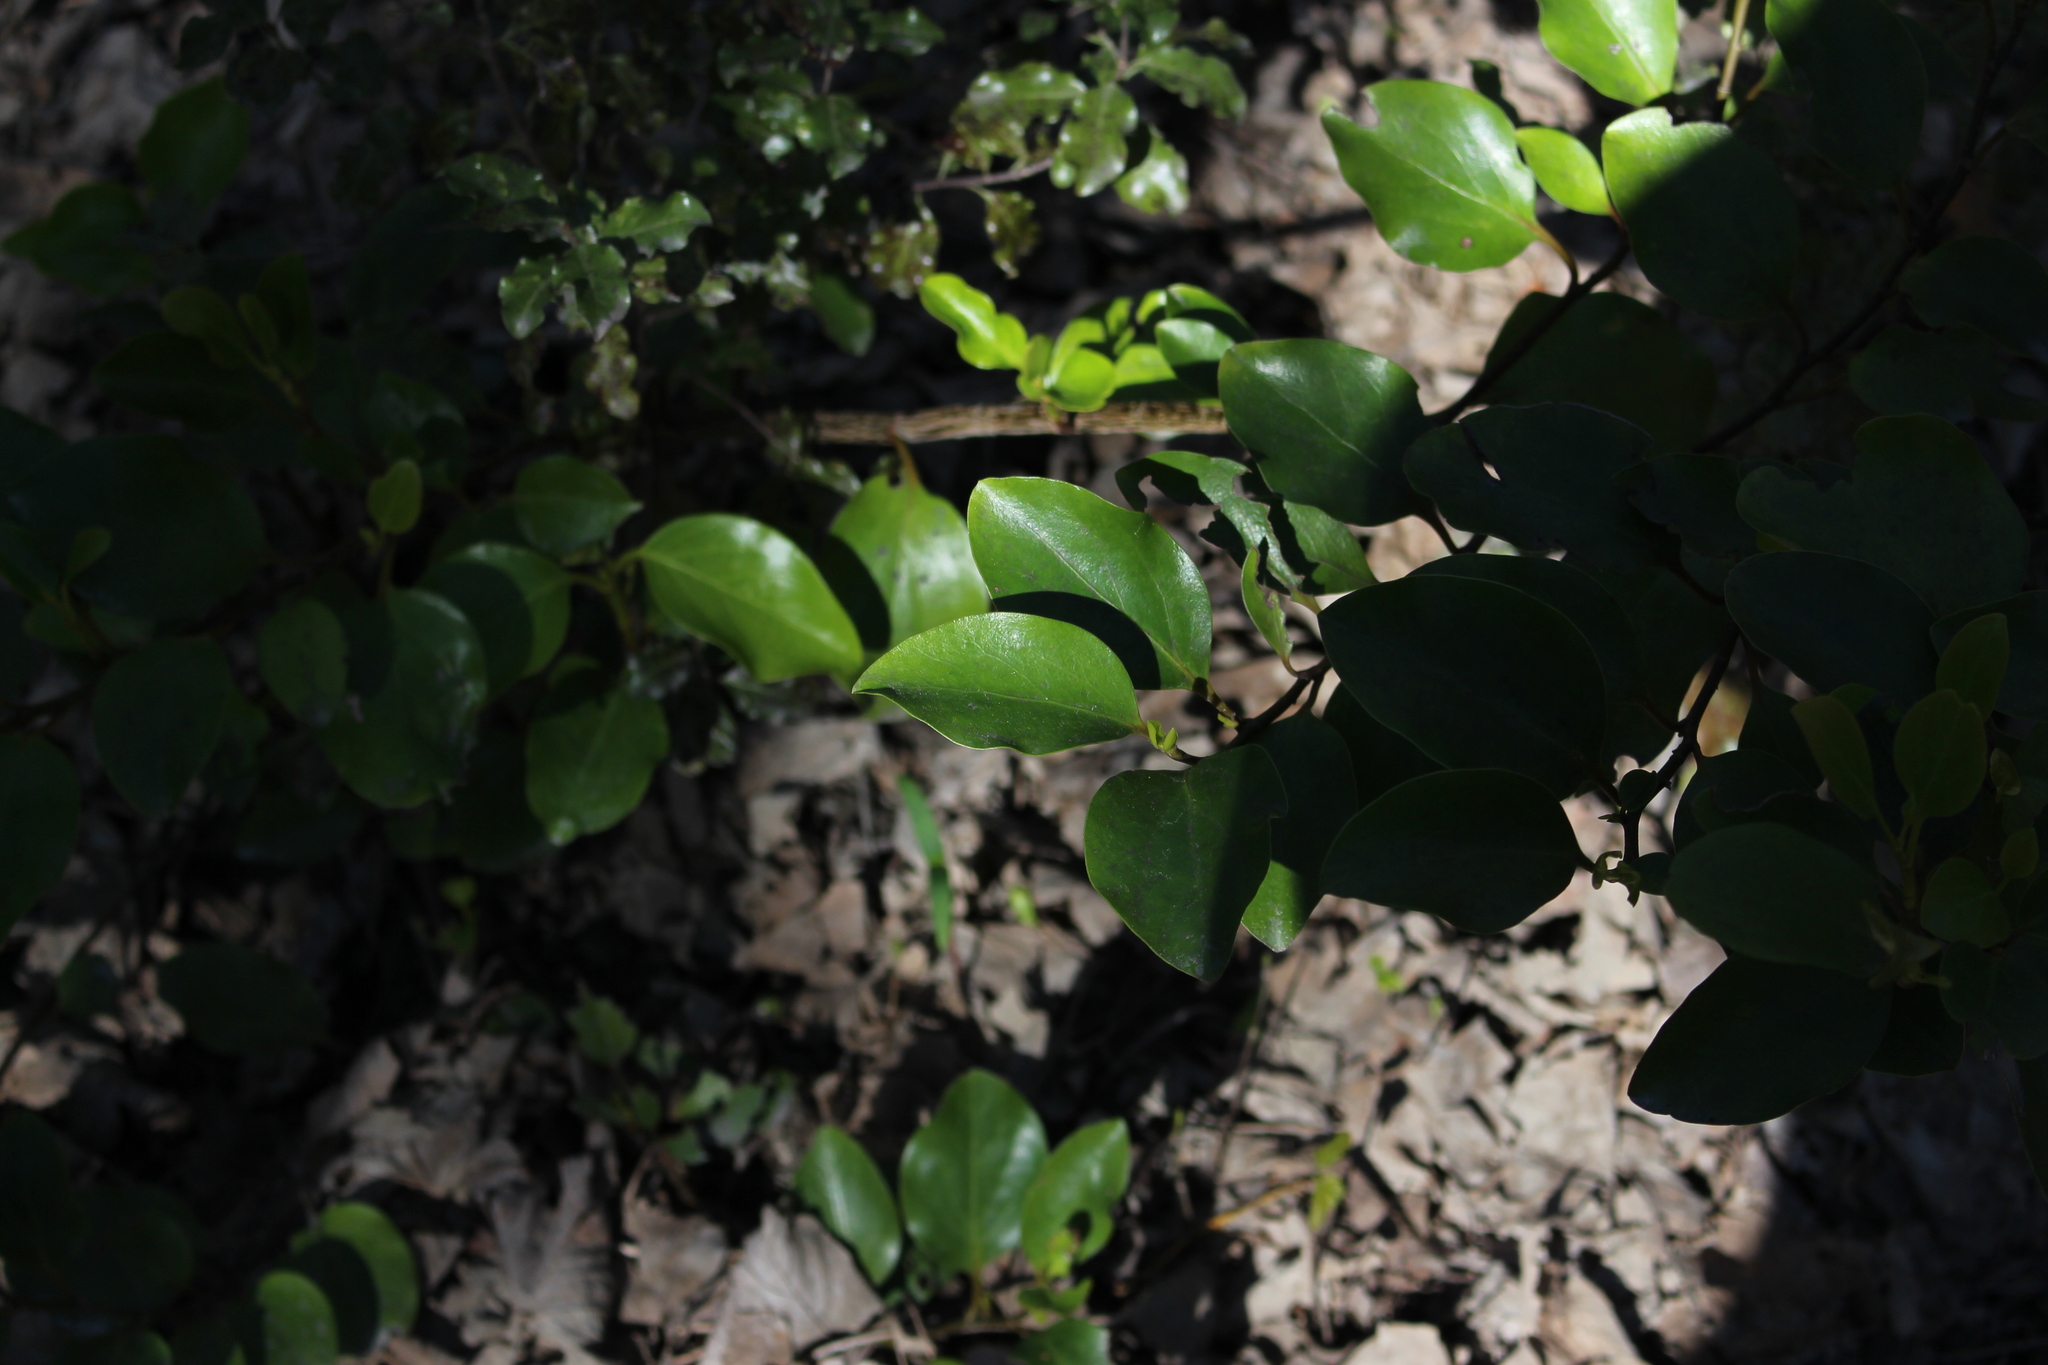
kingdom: Plantae
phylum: Tracheophyta
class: Magnoliopsida
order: Apiales
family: Griseliniaceae
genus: Griselinia
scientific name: Griselinia littoralis
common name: New zealand broadleaf
